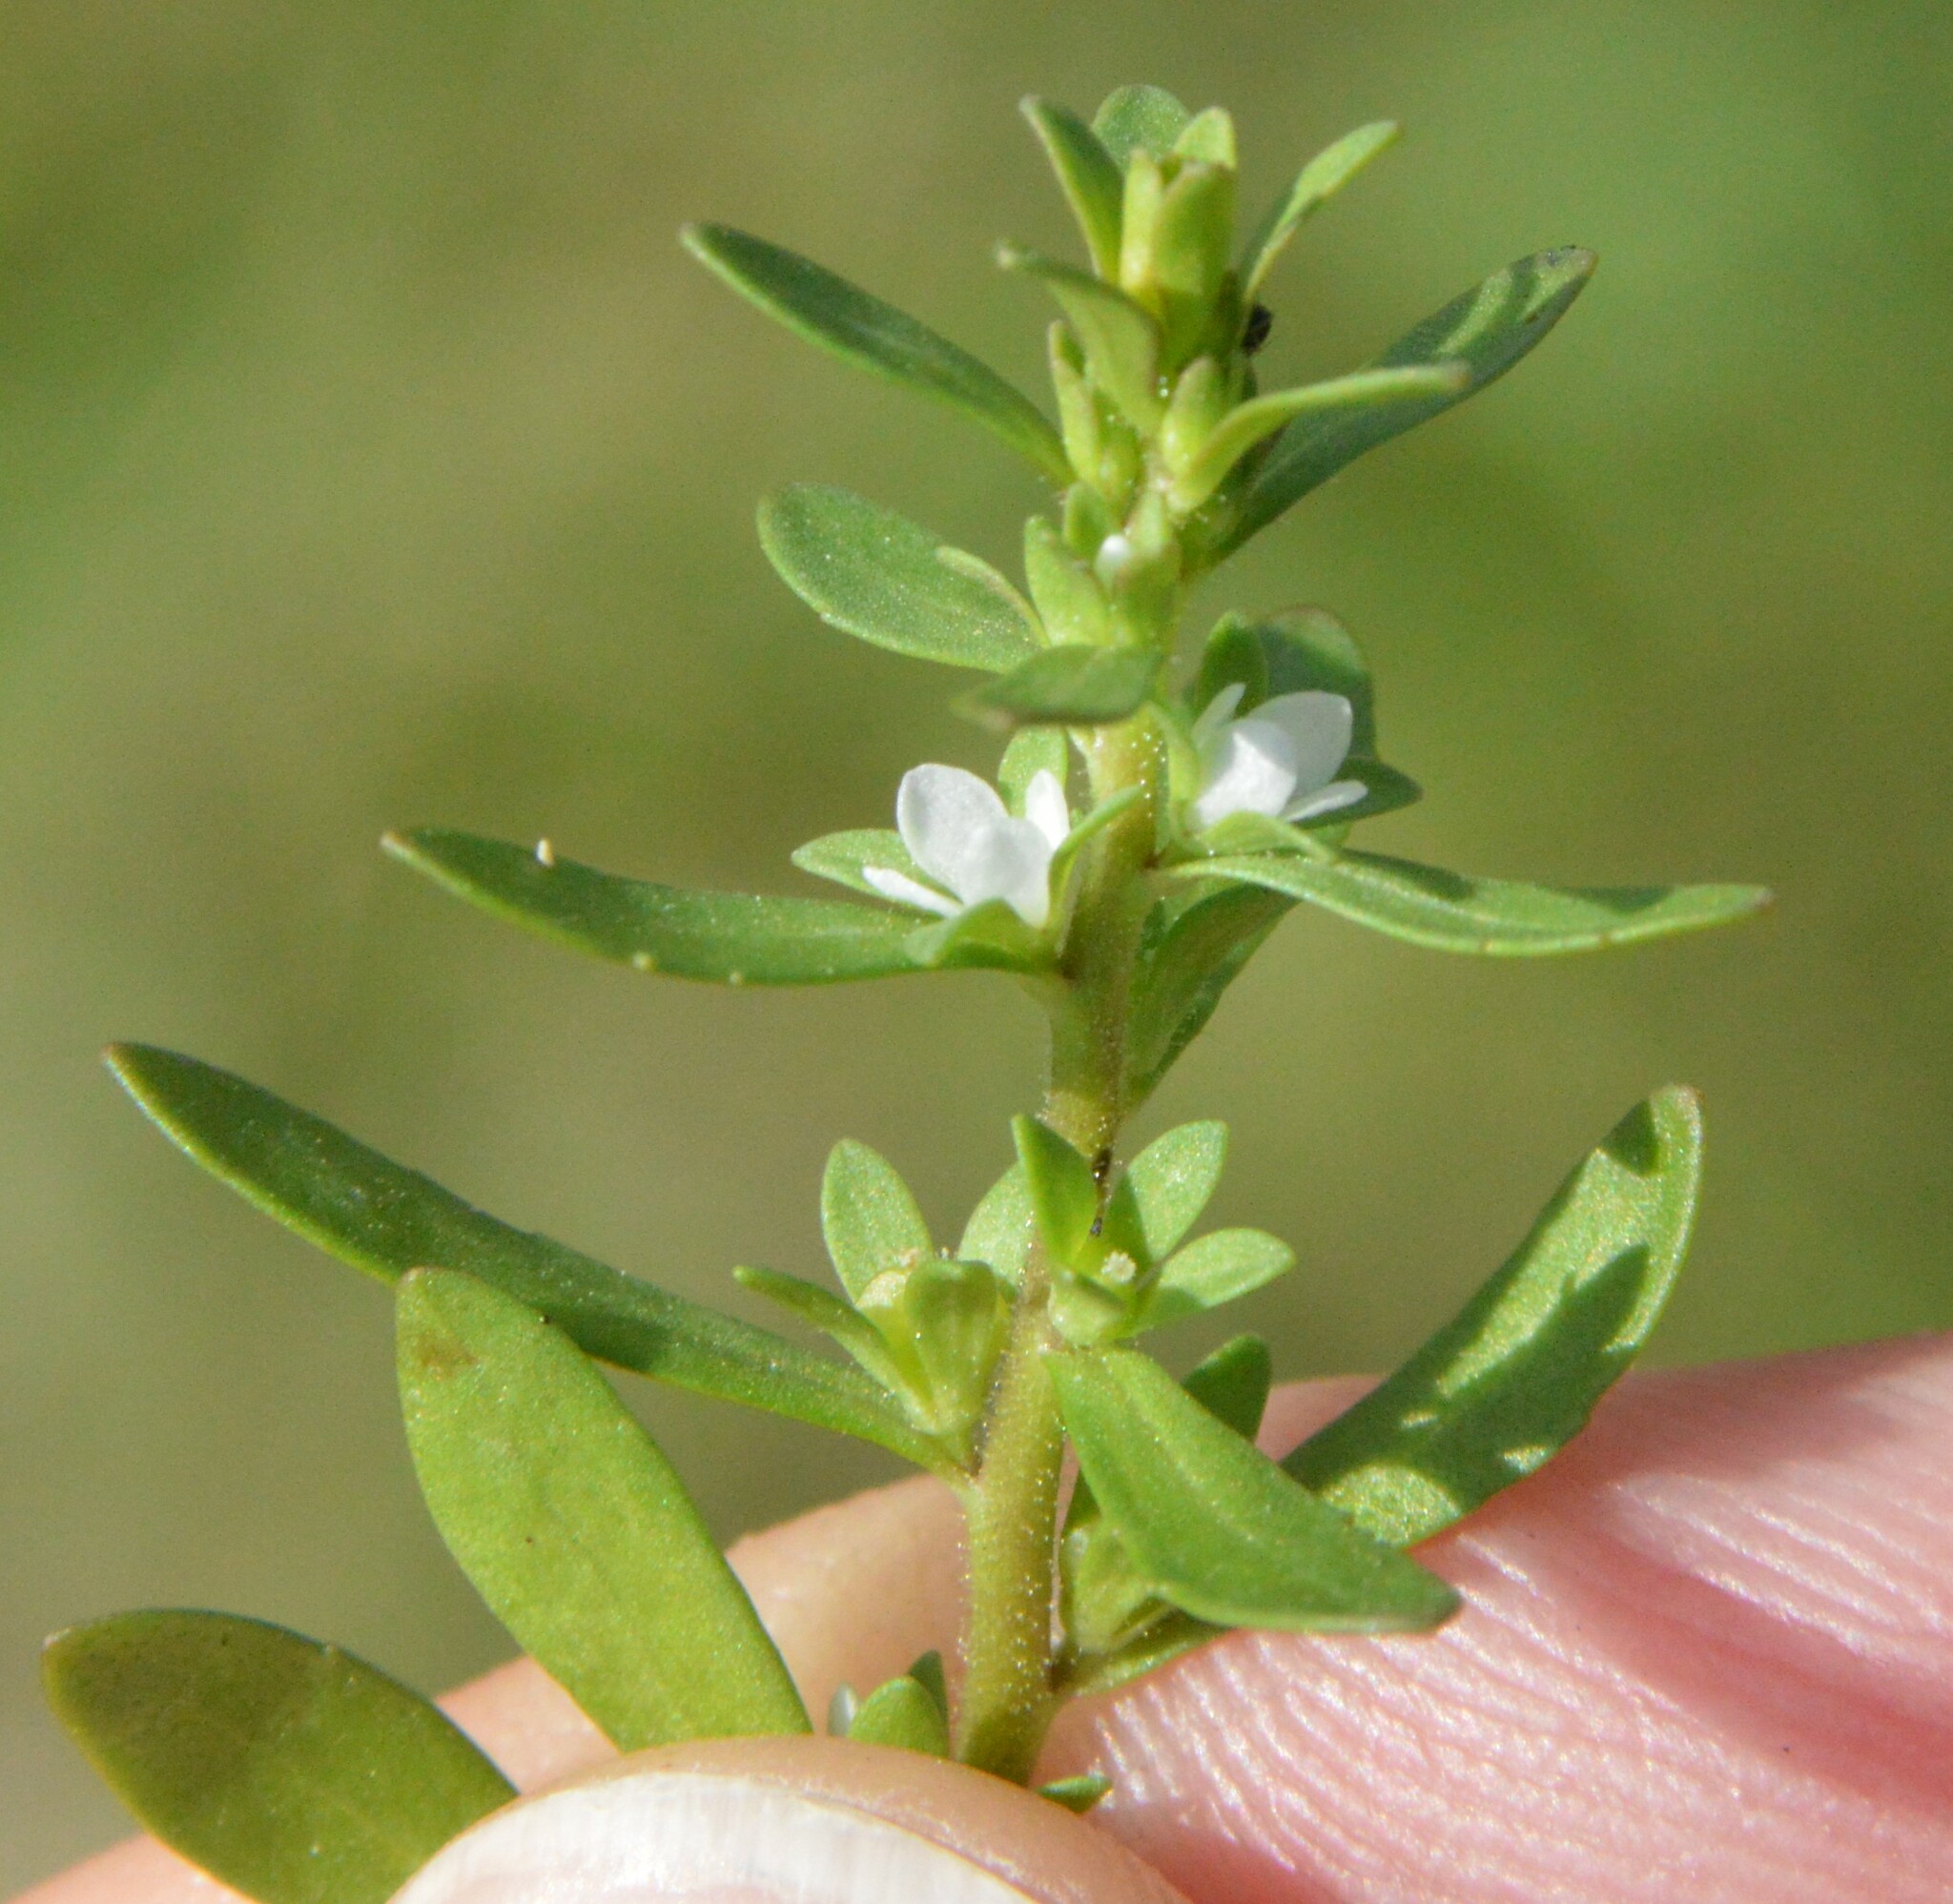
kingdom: Plantae
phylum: Tracheophyta
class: Magnoliopsida
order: Lamiales
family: Plantaginaceae
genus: Veronica
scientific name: Veronica peregrina
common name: Neckweed
